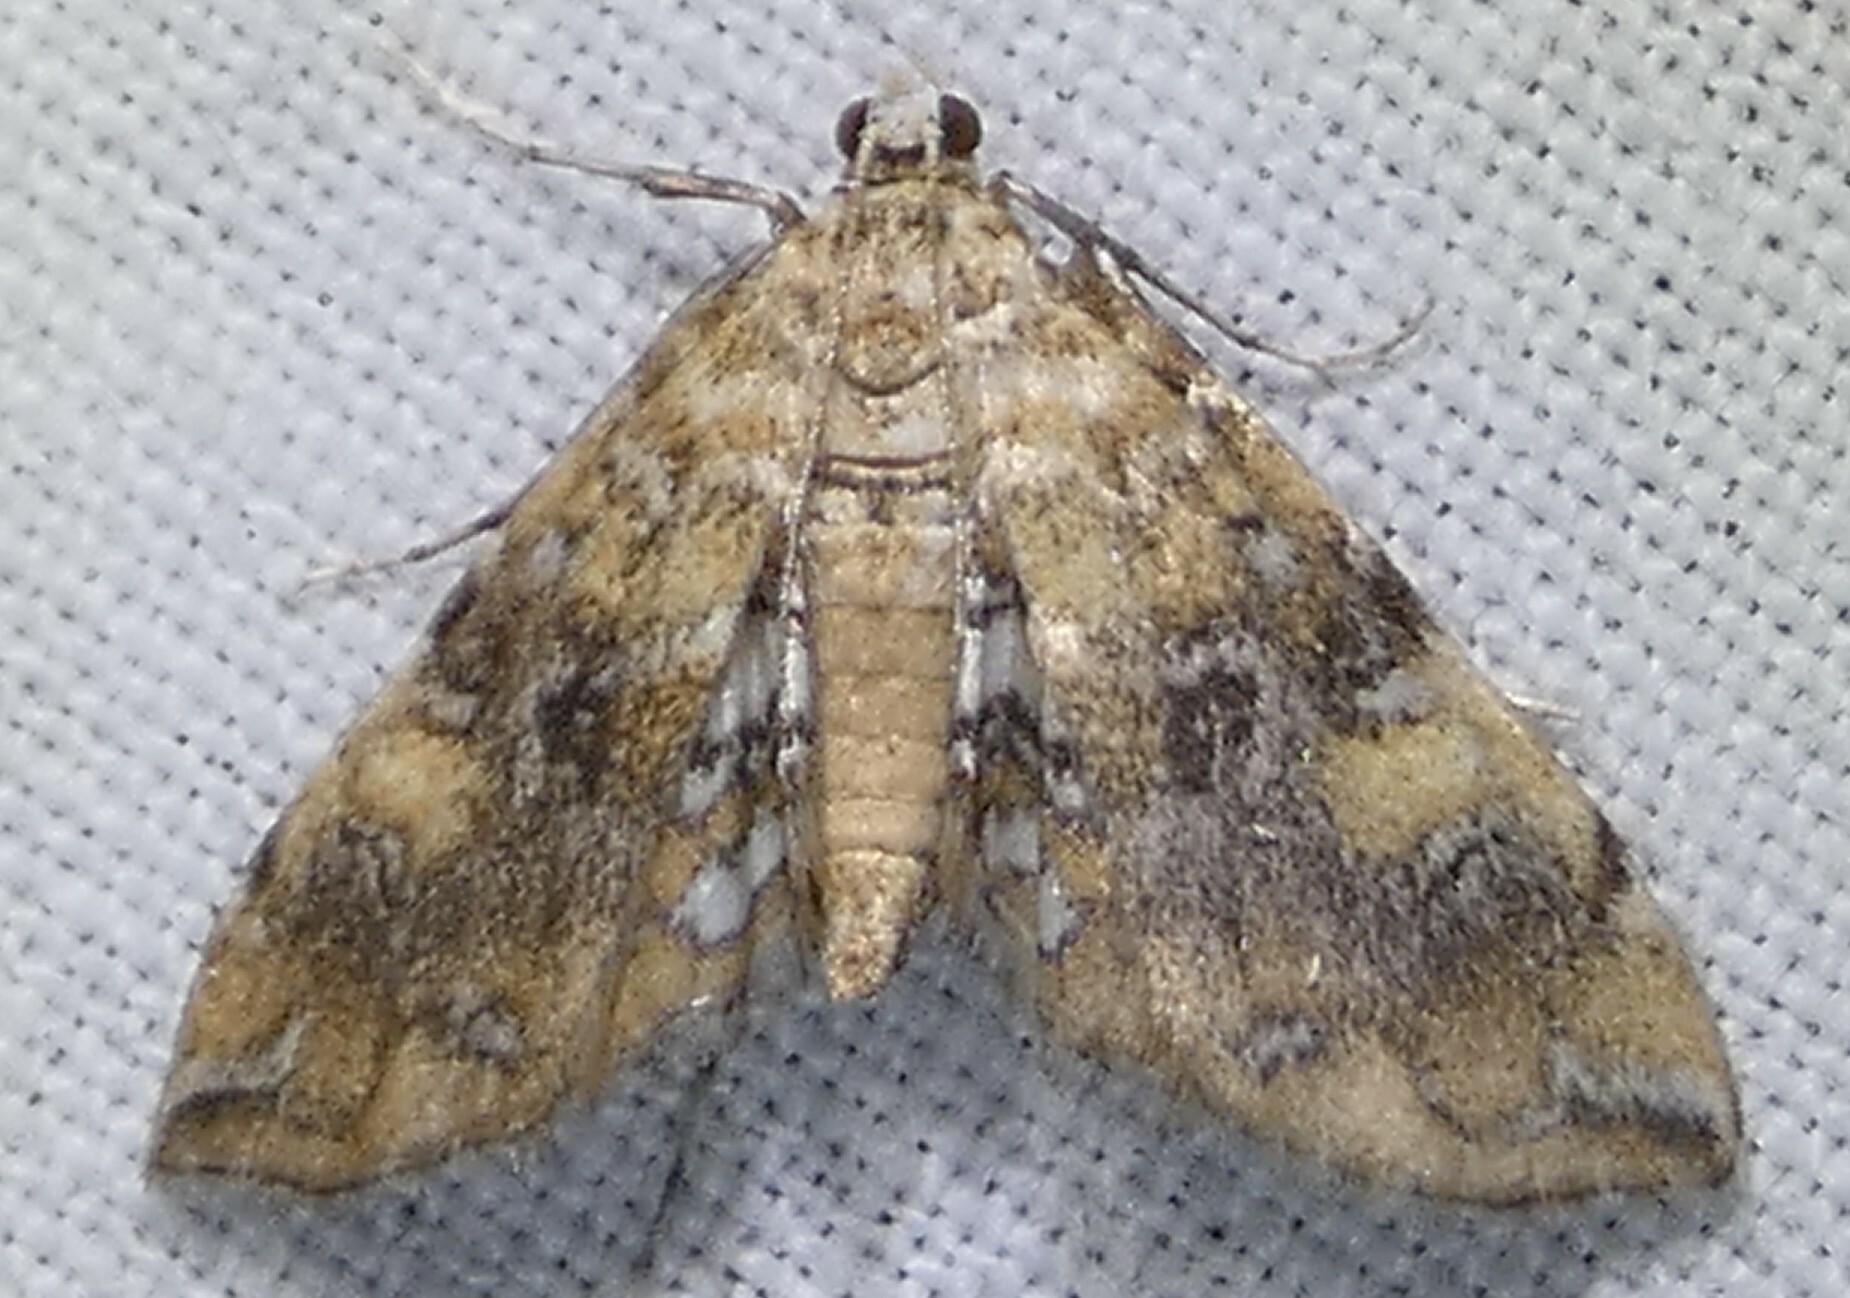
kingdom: Animalia
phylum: Arthropoda
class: Insecta
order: Lepidoptera
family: Crambidae
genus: Elophila
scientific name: Elophila faulalis
